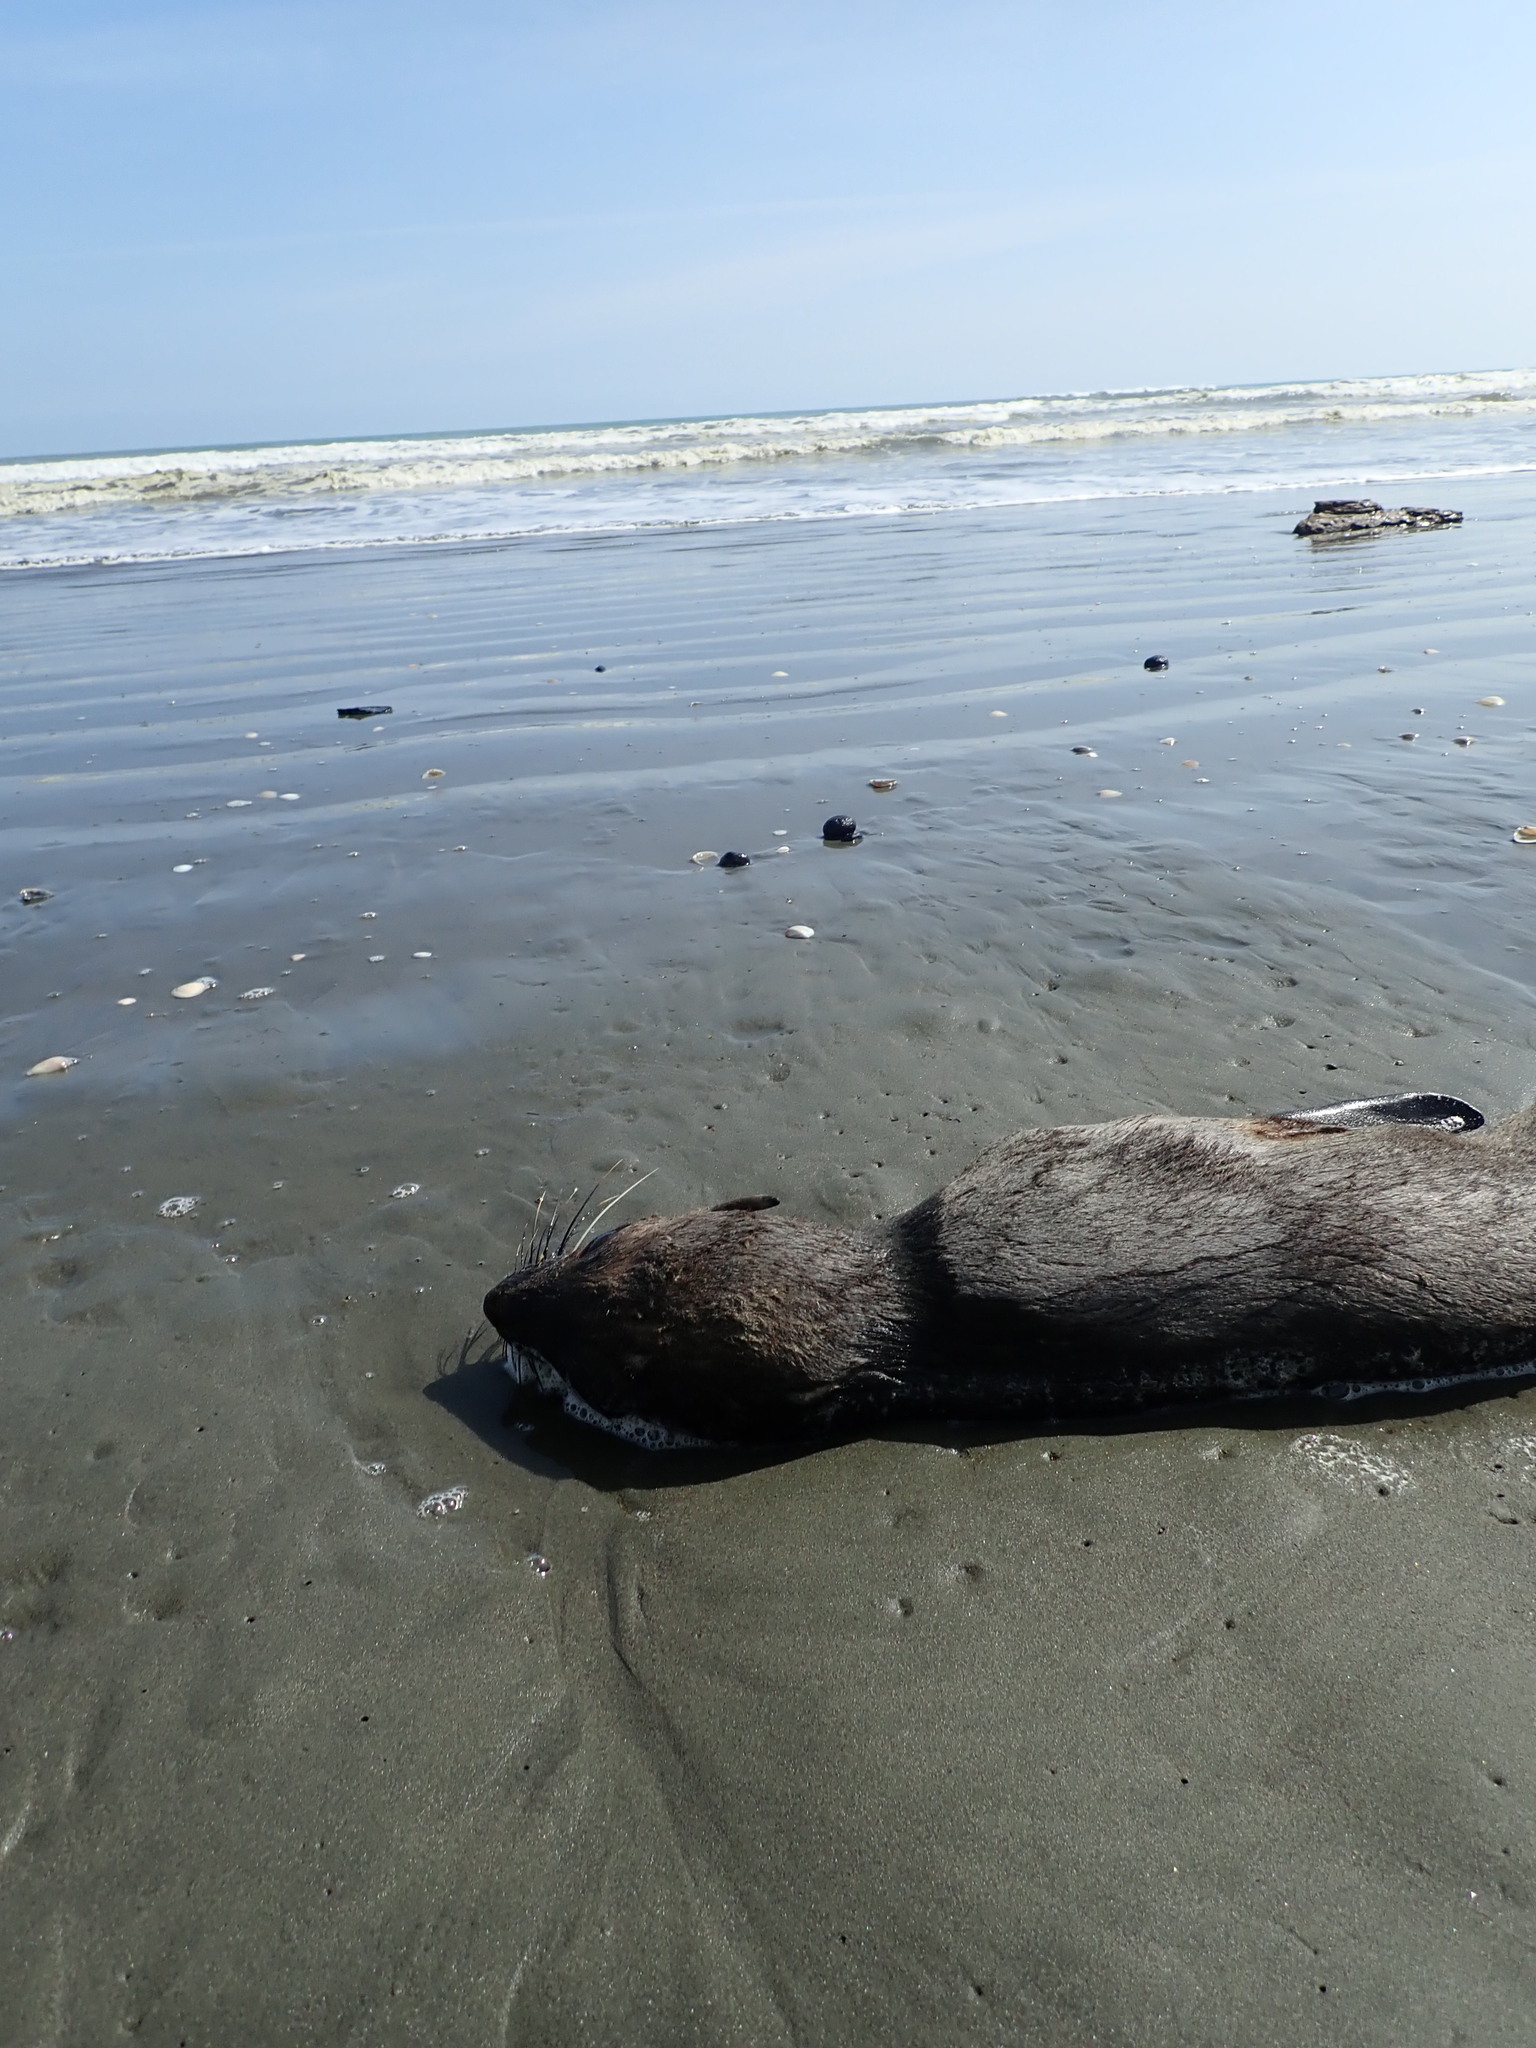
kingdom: Animalia
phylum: Chordata
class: Mammalia
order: Carnivora
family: Otariidae
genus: Arctocephalus
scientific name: Arctocephalus forsteri
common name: New zealand fur seal
